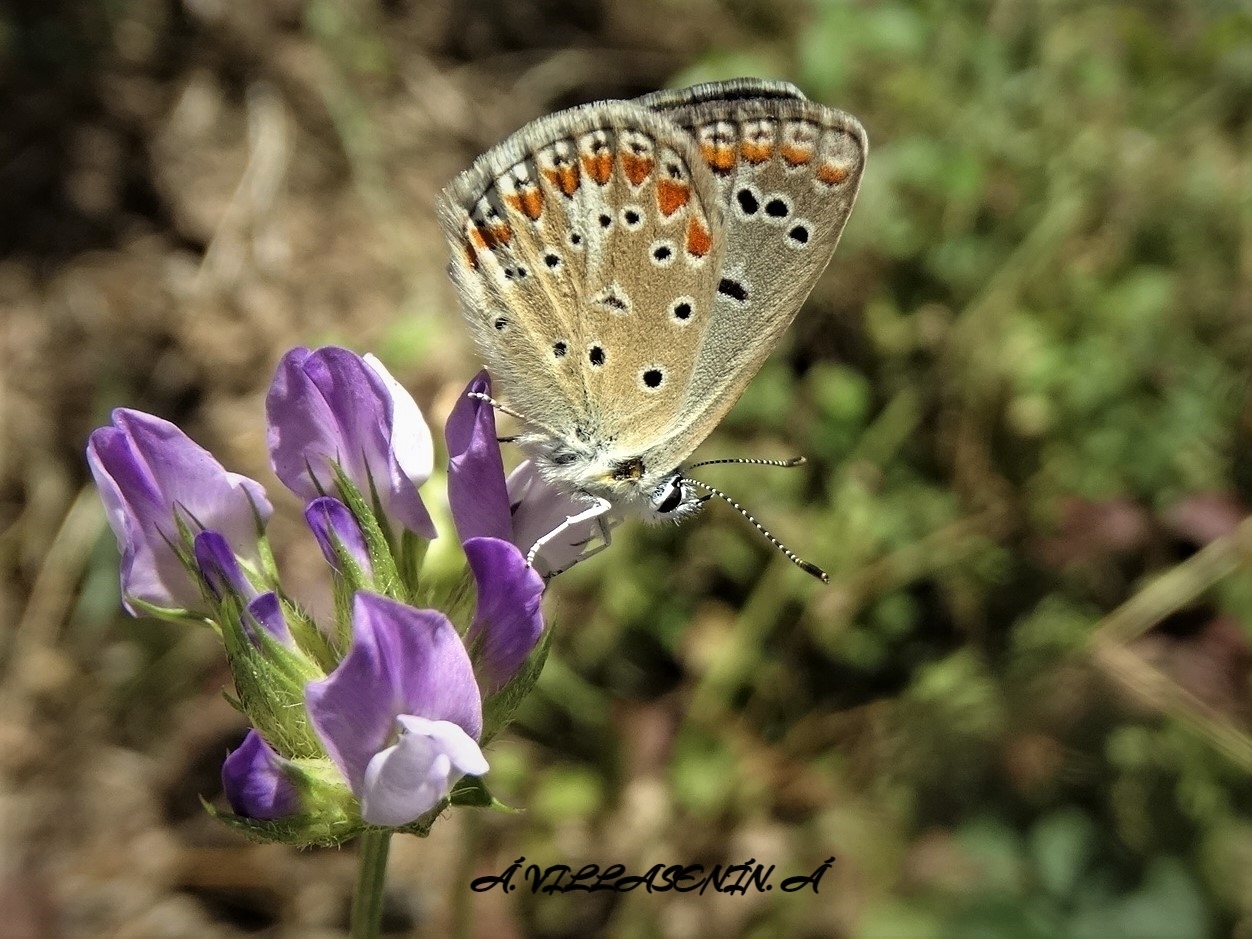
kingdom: Animalia
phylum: Arthropoda
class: Insecta
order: Lepidoptera
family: Lycaenidae
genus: Polyommatus
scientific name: Polyommatus thersites
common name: Chapman's blue
